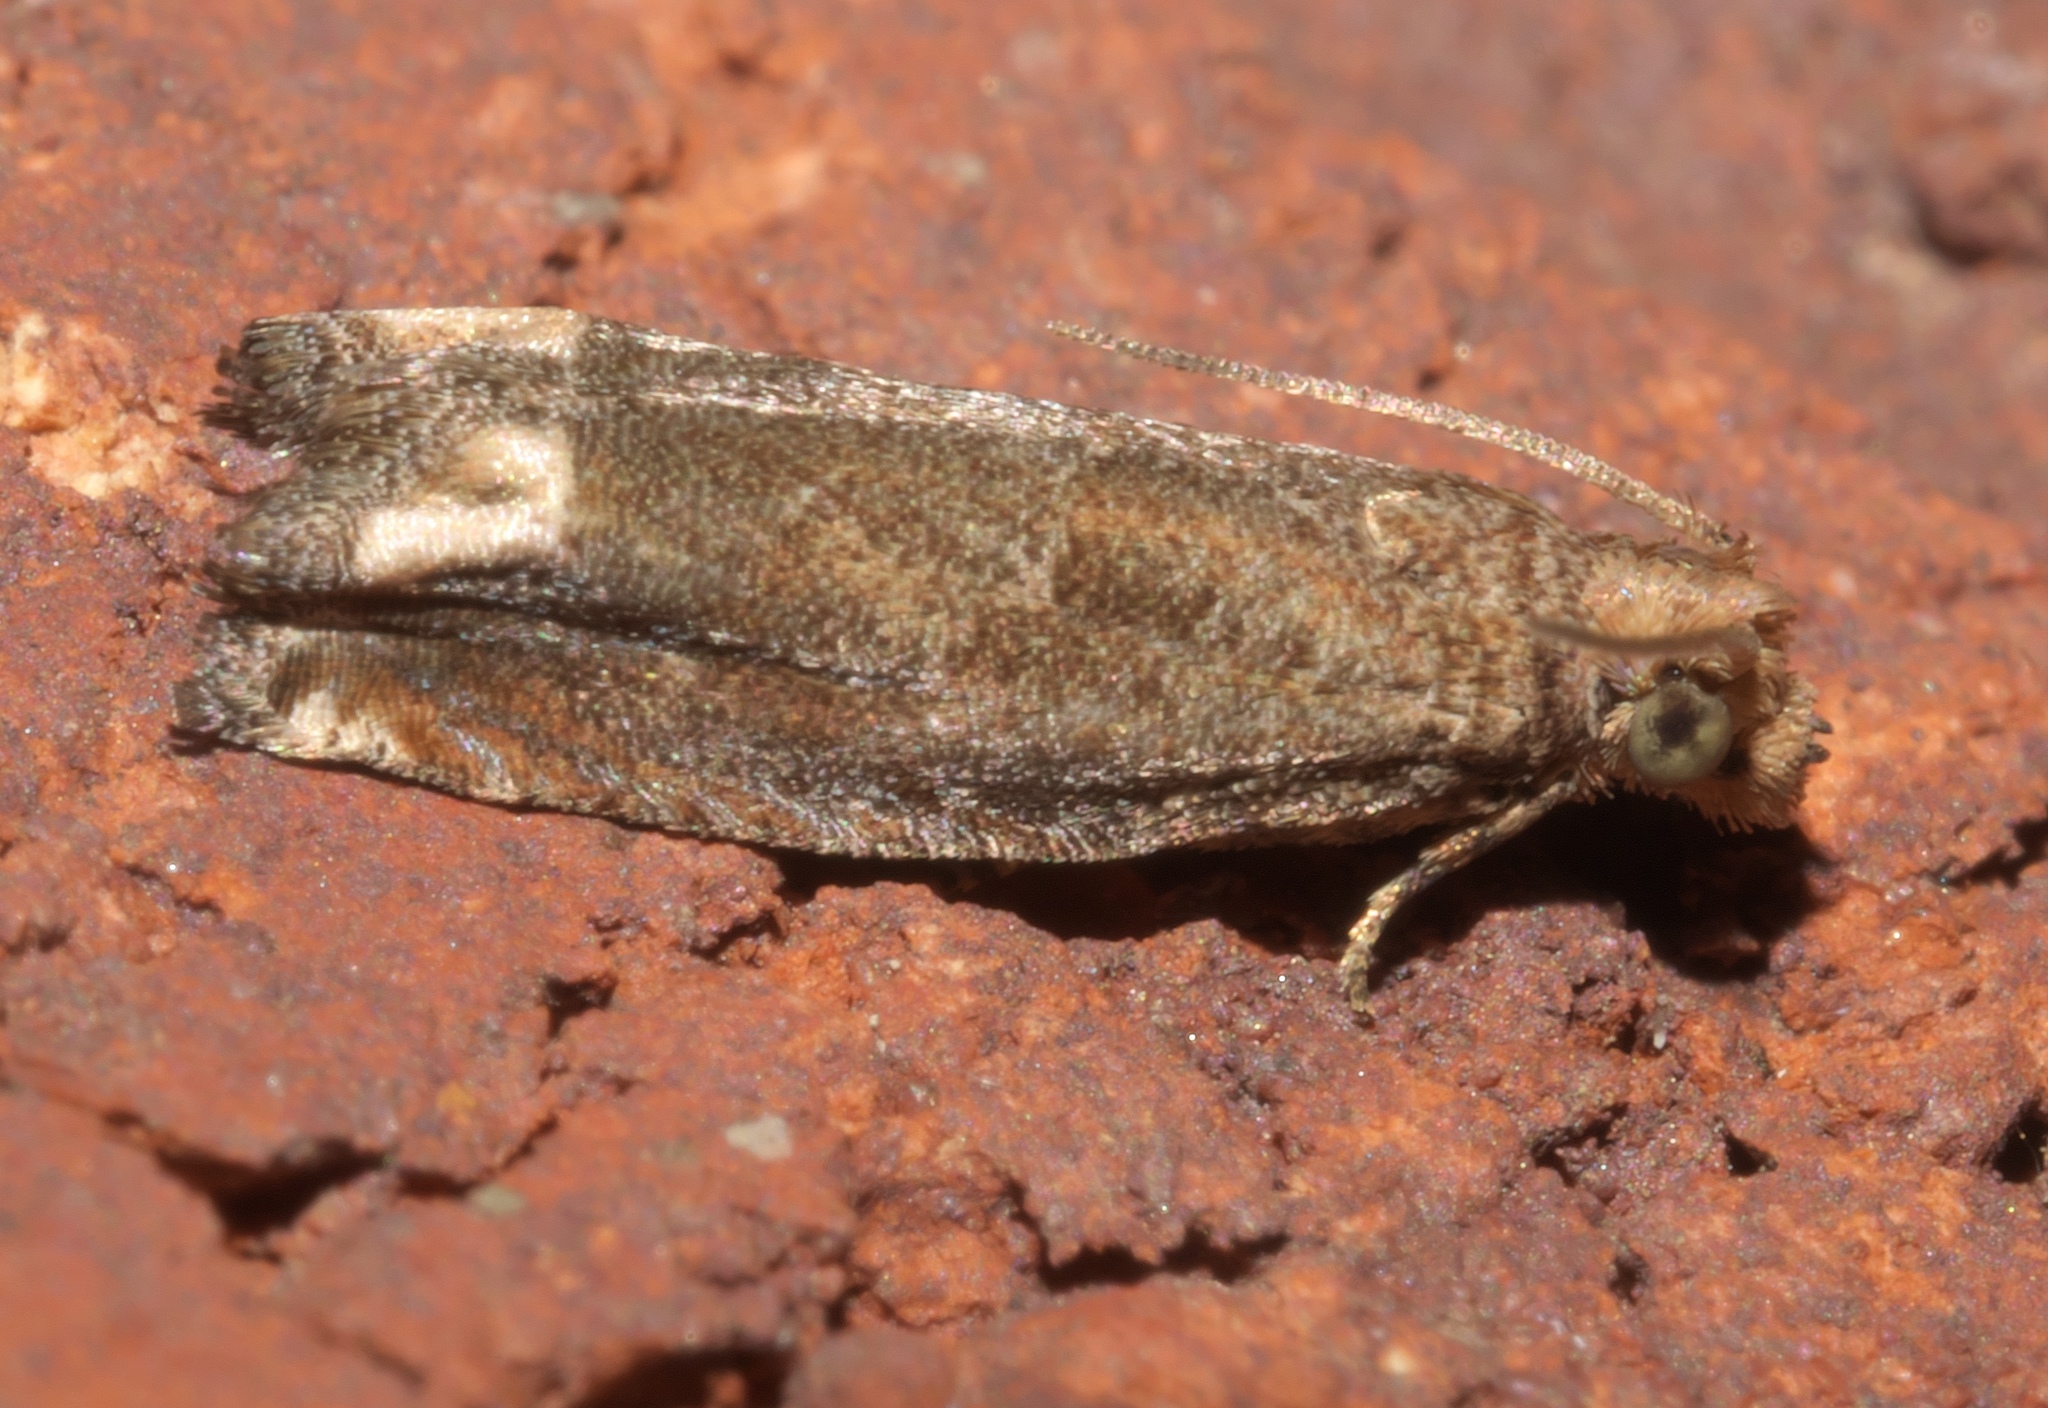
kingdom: Animalia
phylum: Arthropoda
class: Insecta
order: Lepidoptera
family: Tortricidae
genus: Epiblema
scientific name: Epiblema mandana
